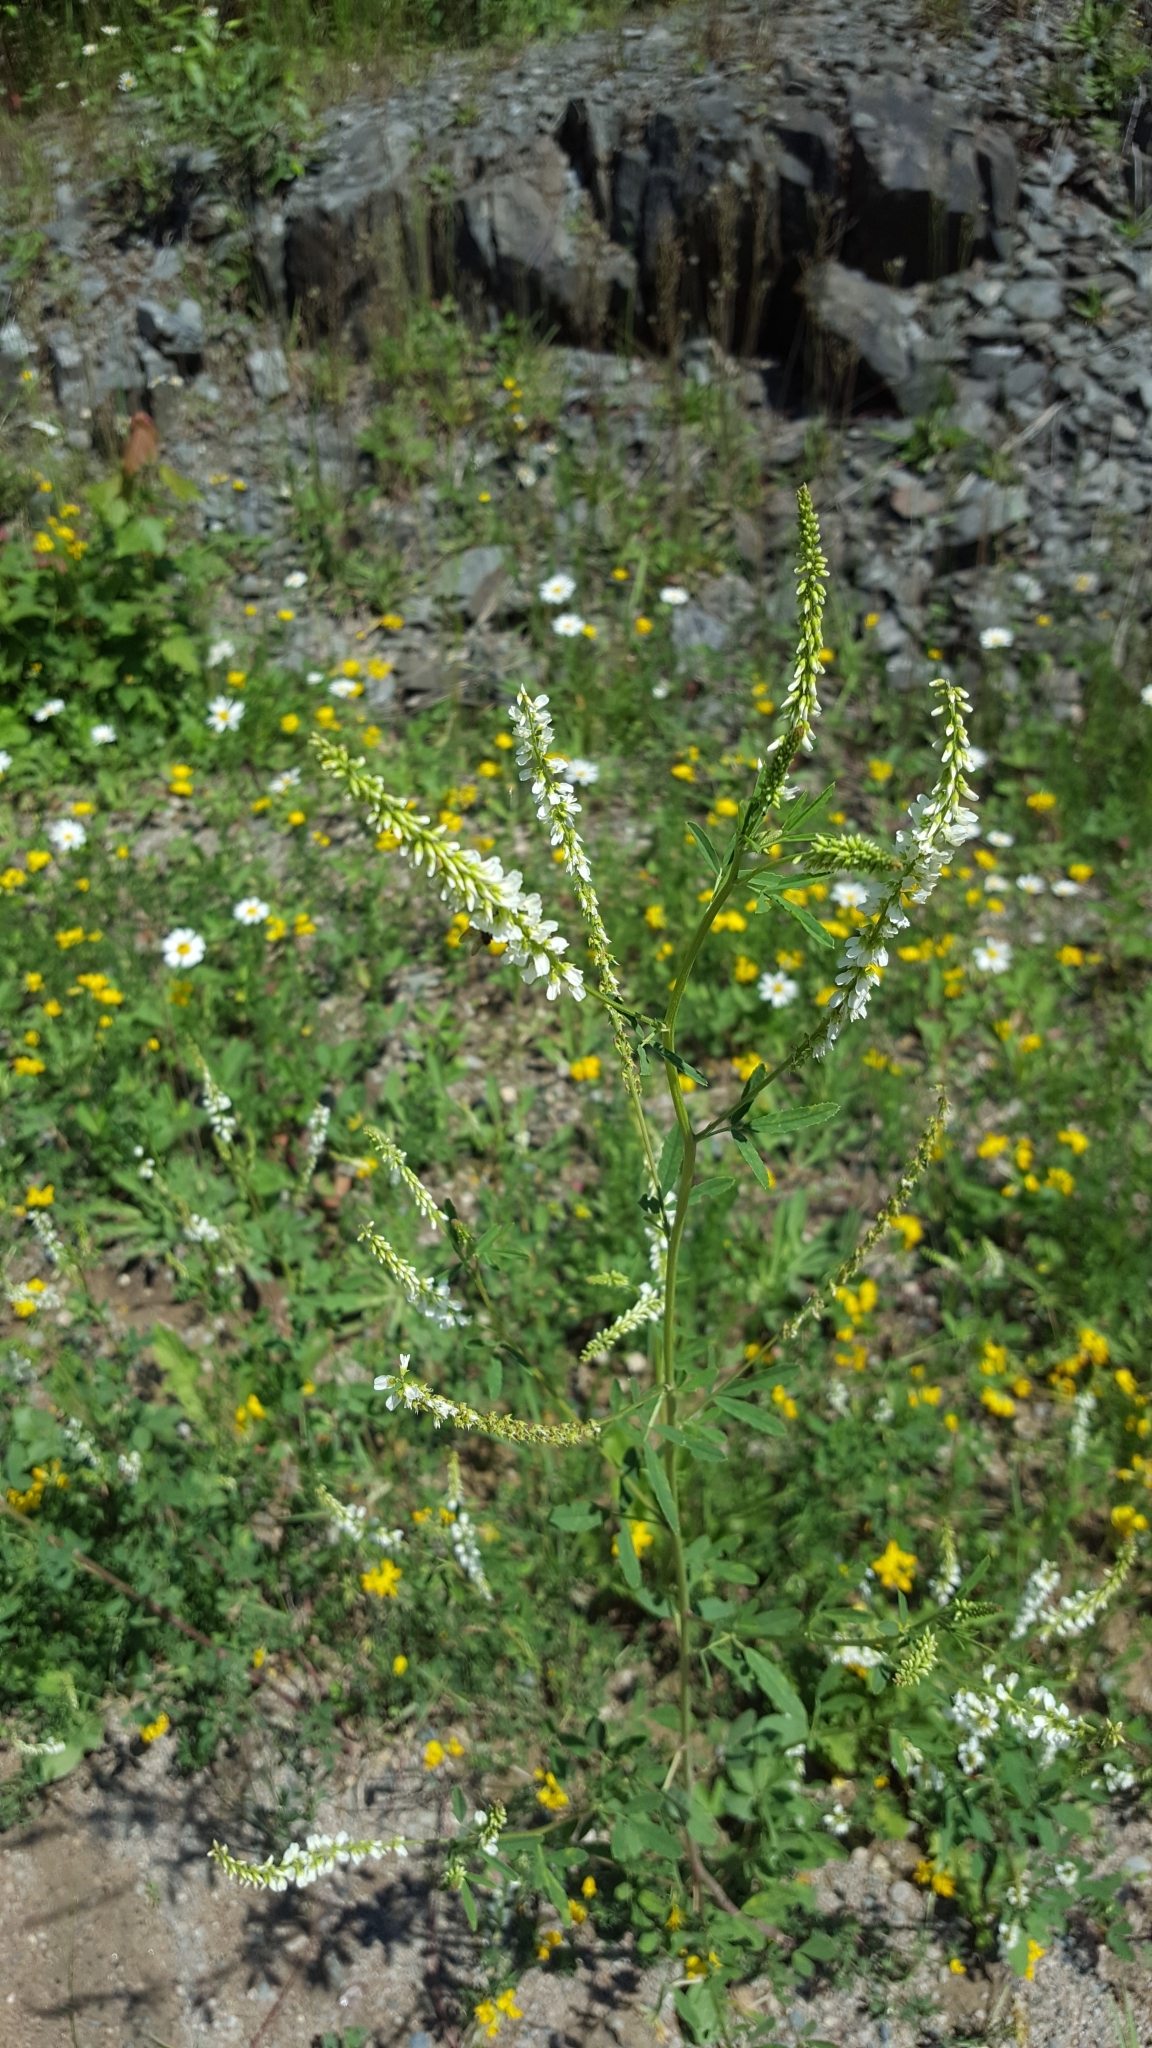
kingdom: Plantae
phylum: Tracheophyta
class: Magnoliopsida
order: Fabales
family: Fabaceae
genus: Melilotus
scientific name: Melilotus albus
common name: White melilot
